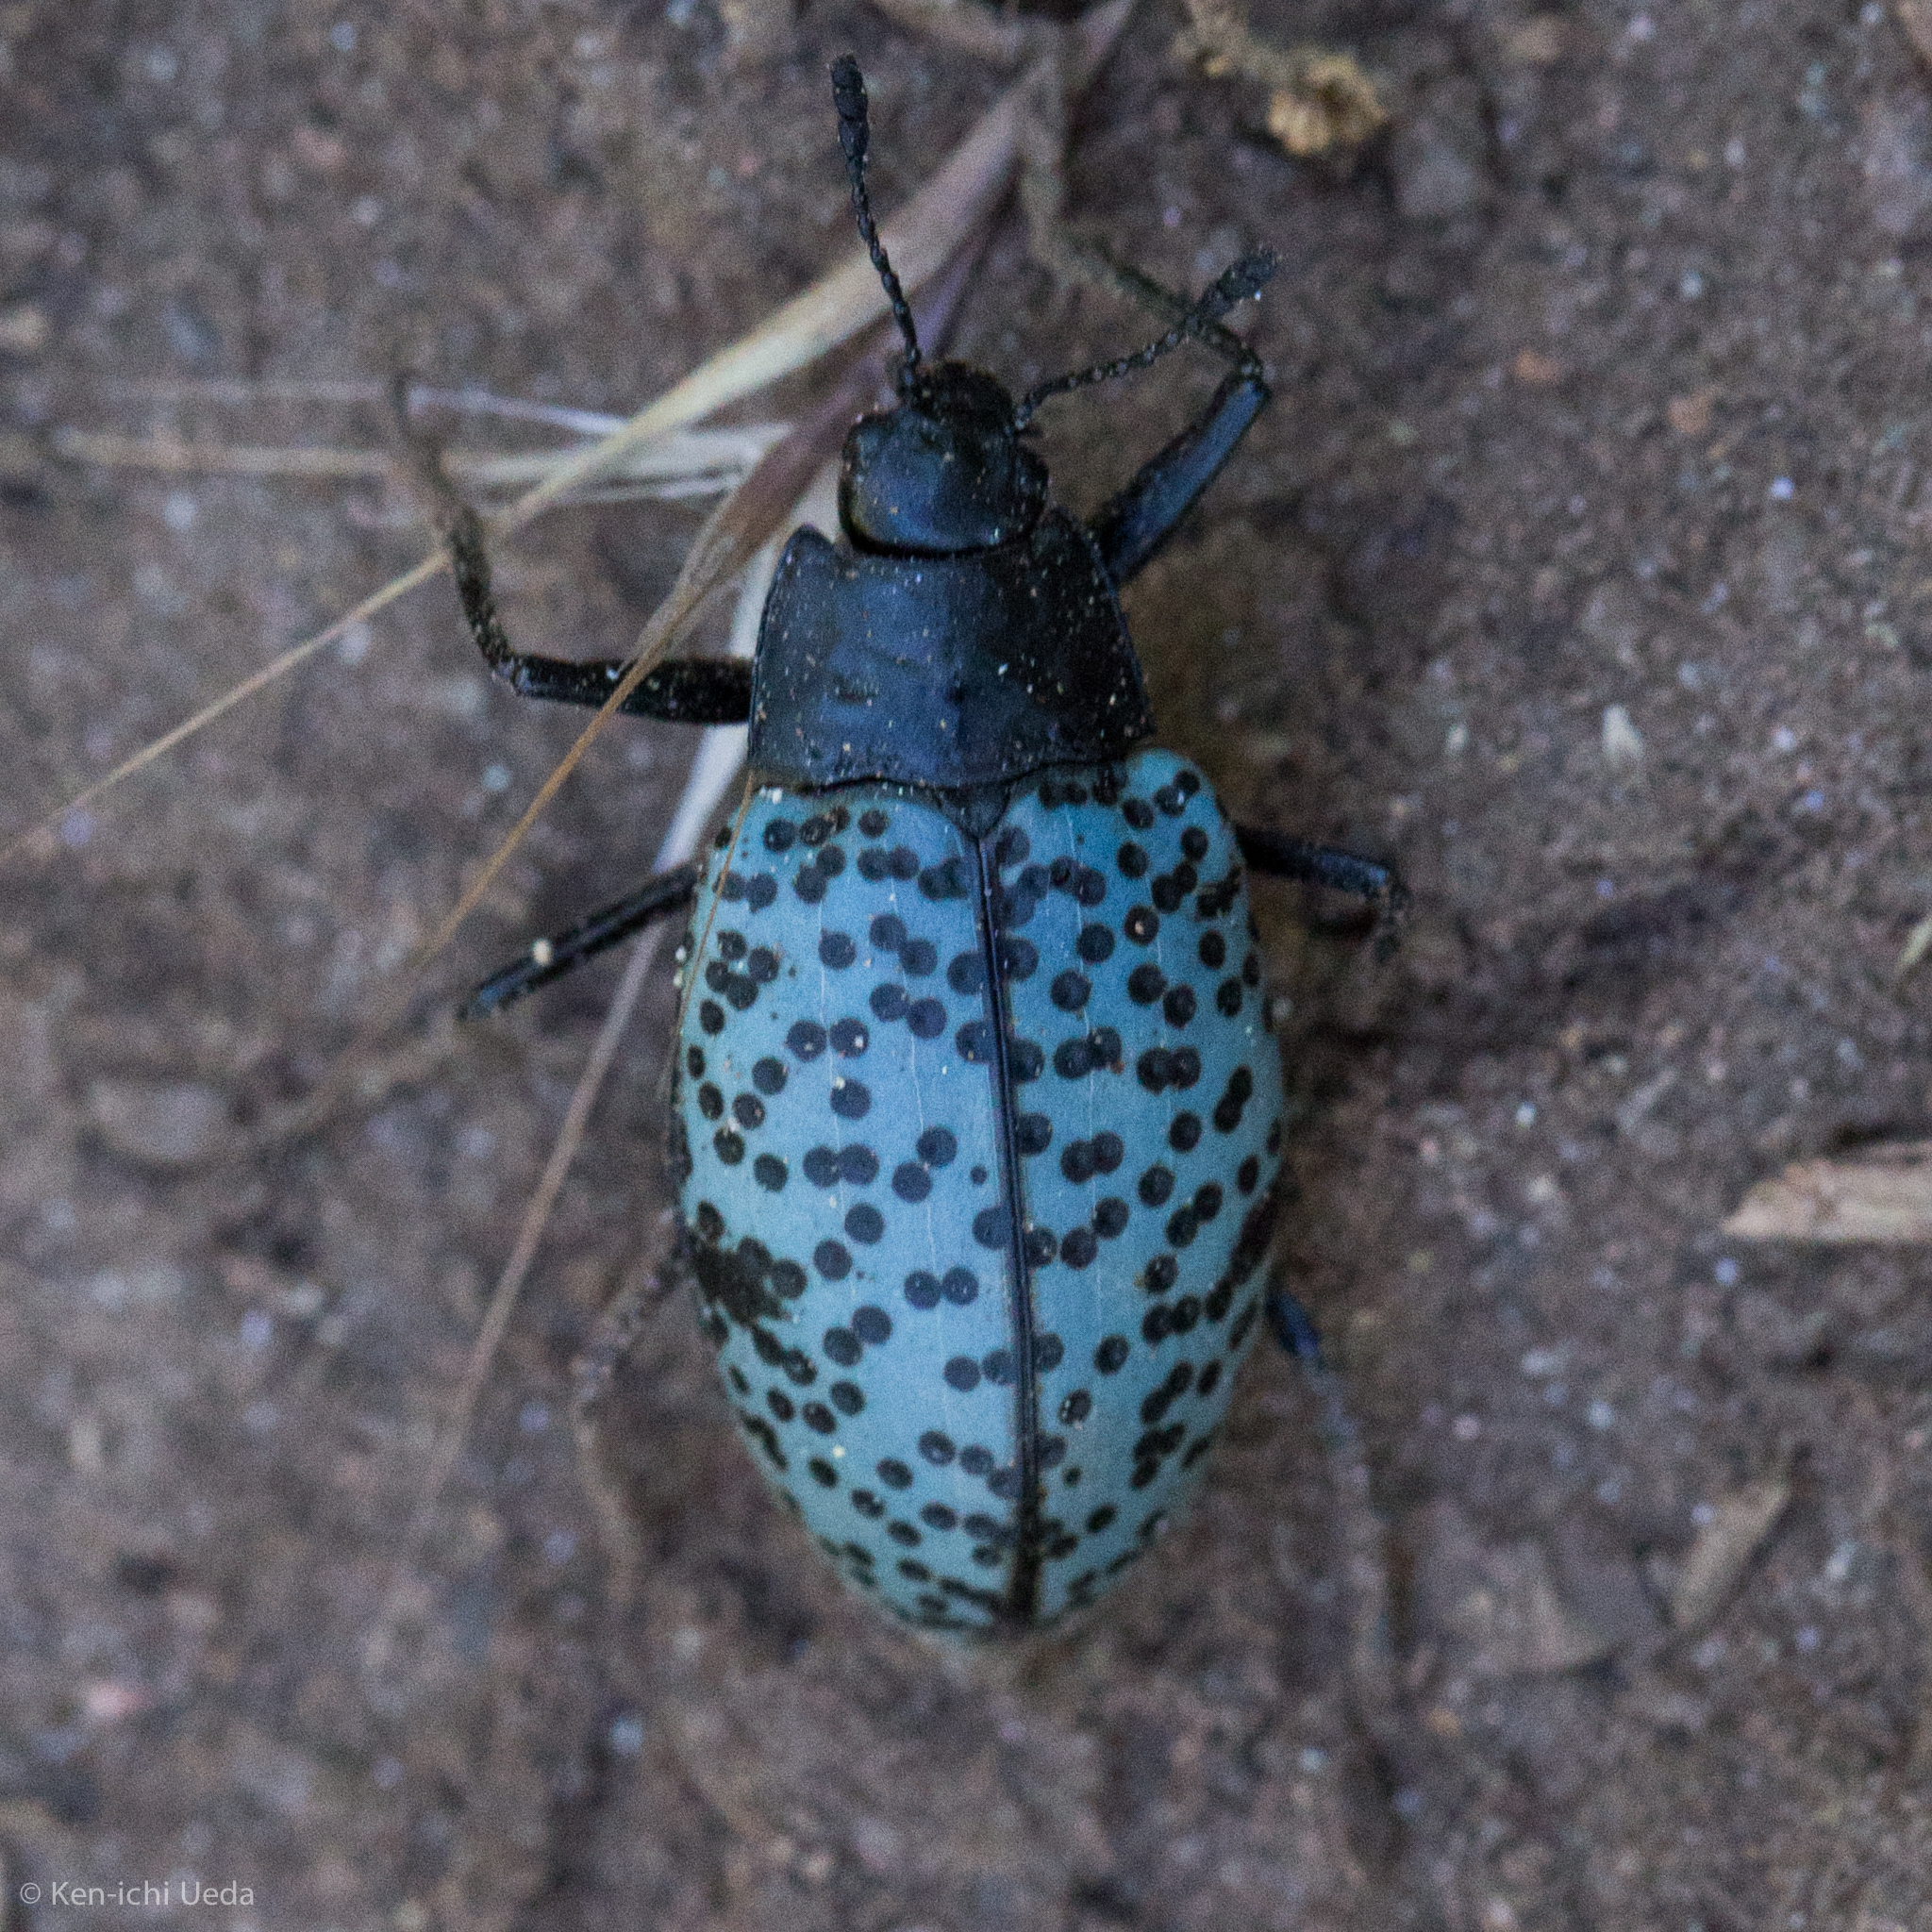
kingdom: Animalia
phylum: Arthropoda
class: Insecta
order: Coleoptera
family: Erotylidae
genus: Gibbifer
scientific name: Gibbifer californicus
